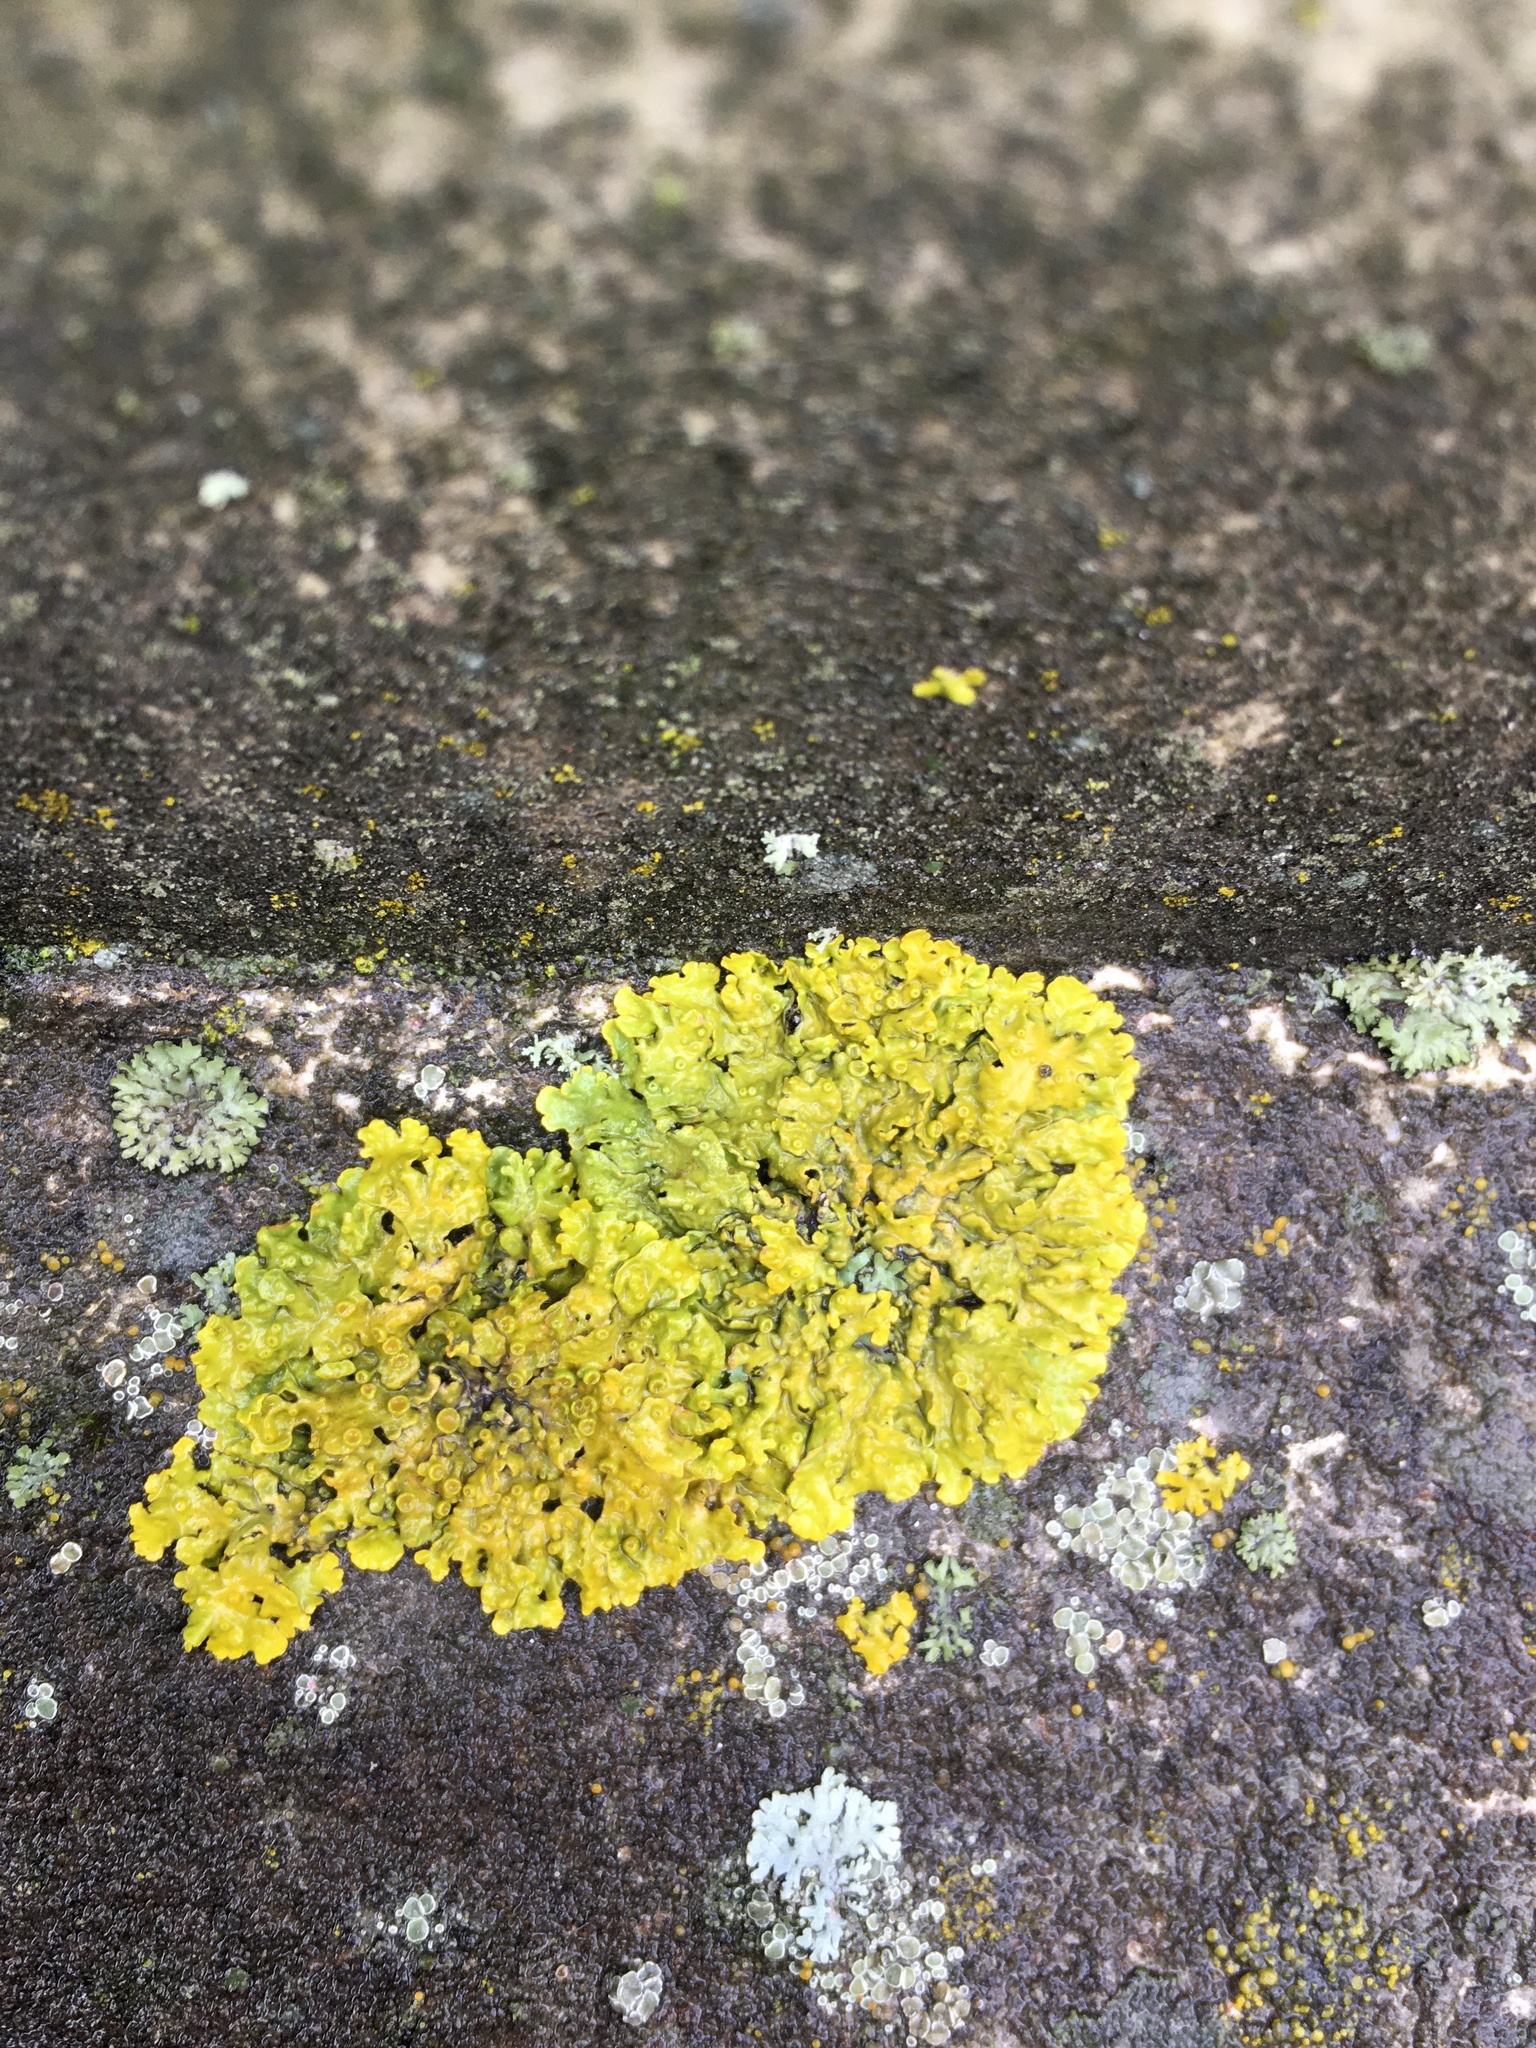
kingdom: Fungi
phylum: Ascomycota
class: Lecanoromycetes
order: Teloschistales
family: Teloschistaceae
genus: Xanthoria
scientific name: Xanthoria parietina
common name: Common orange lichen
